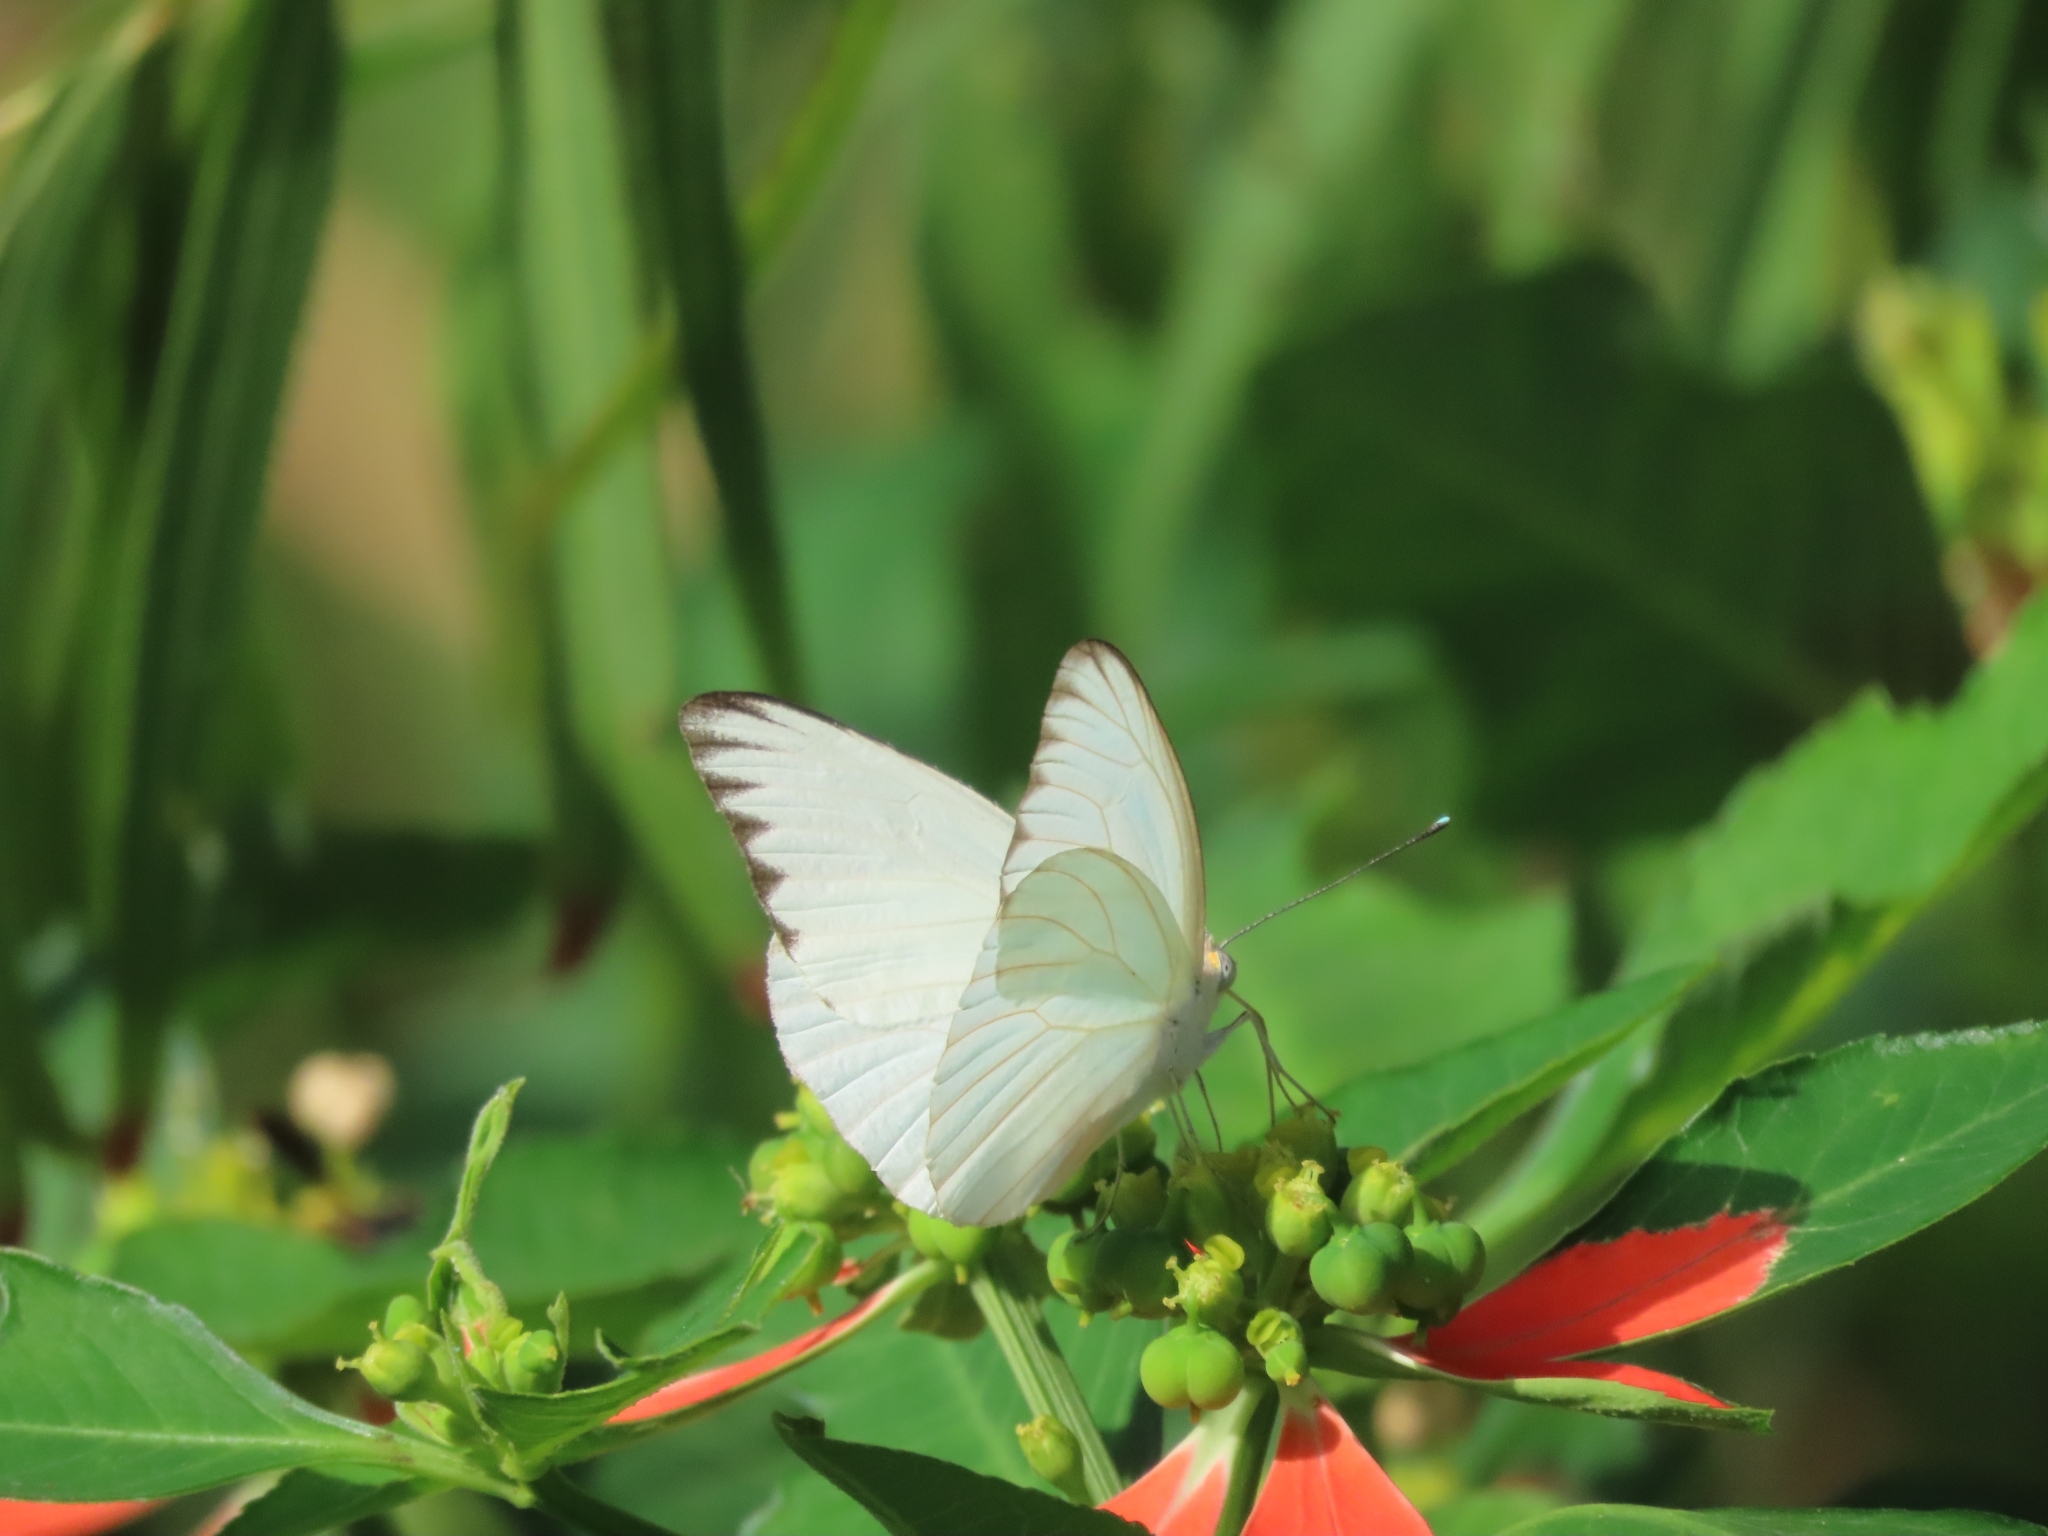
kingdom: Animalia
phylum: Arthropoda
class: Insecta
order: Lepidoptera
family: Pieridae
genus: Ascia
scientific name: Ascia monuste
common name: Great southern white
